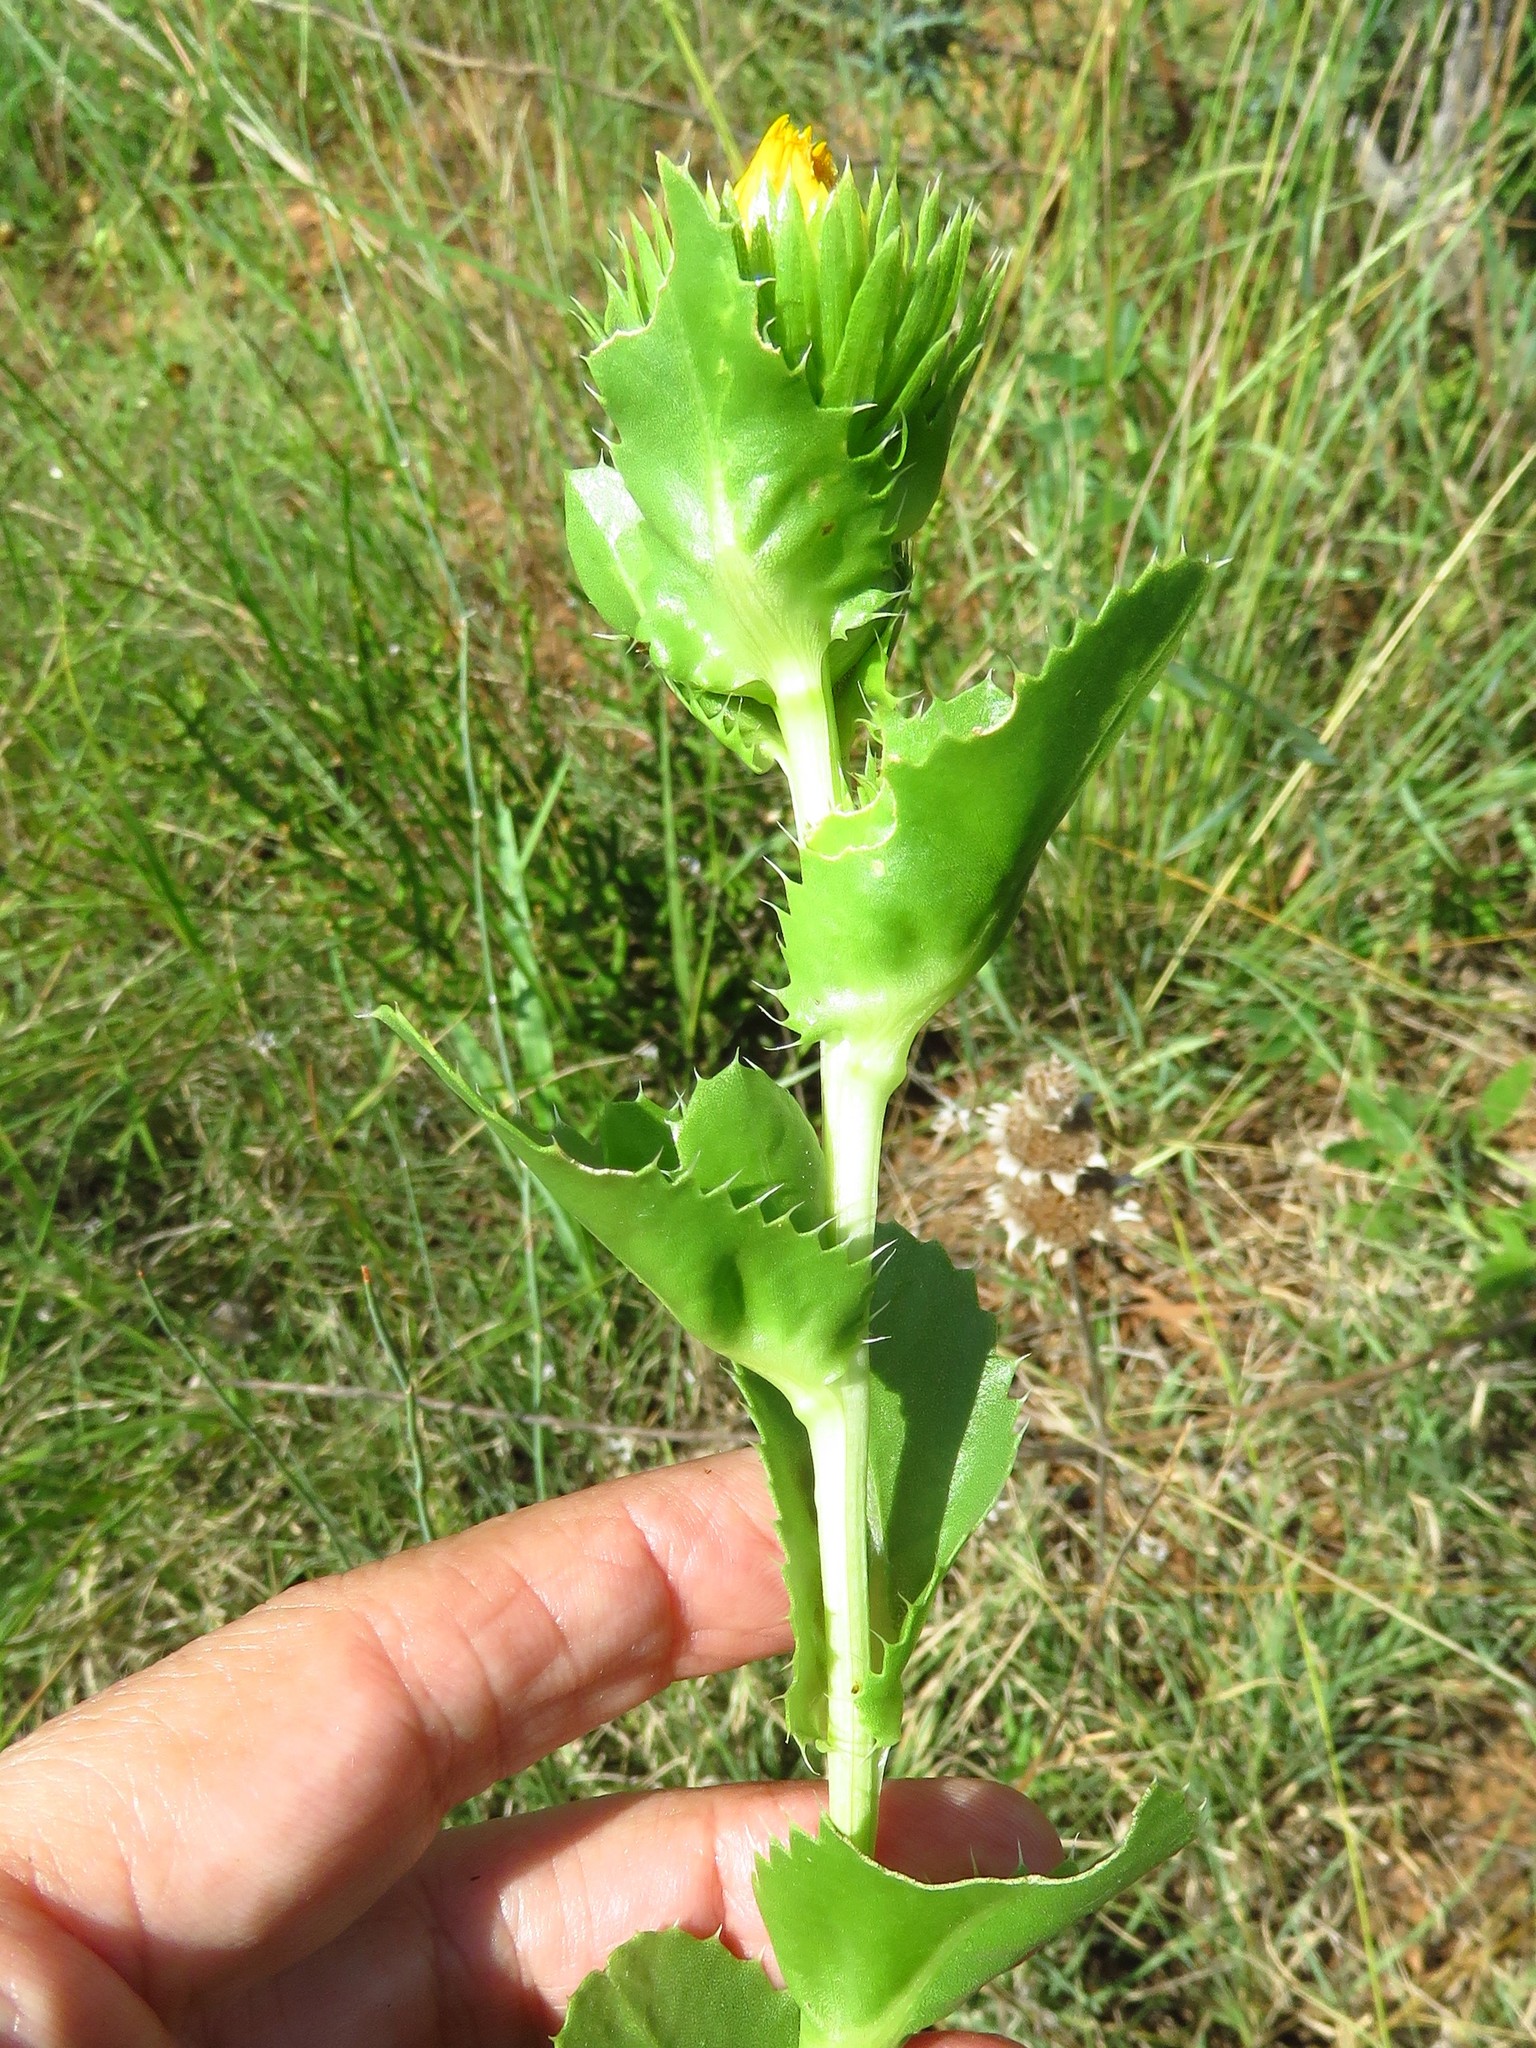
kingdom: Plantae
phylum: Tracheophyta
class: Magnoliopsida
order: Asterales
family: Asteraceae
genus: Grindelia
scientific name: Grindelia ciliata
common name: Goldenweed
